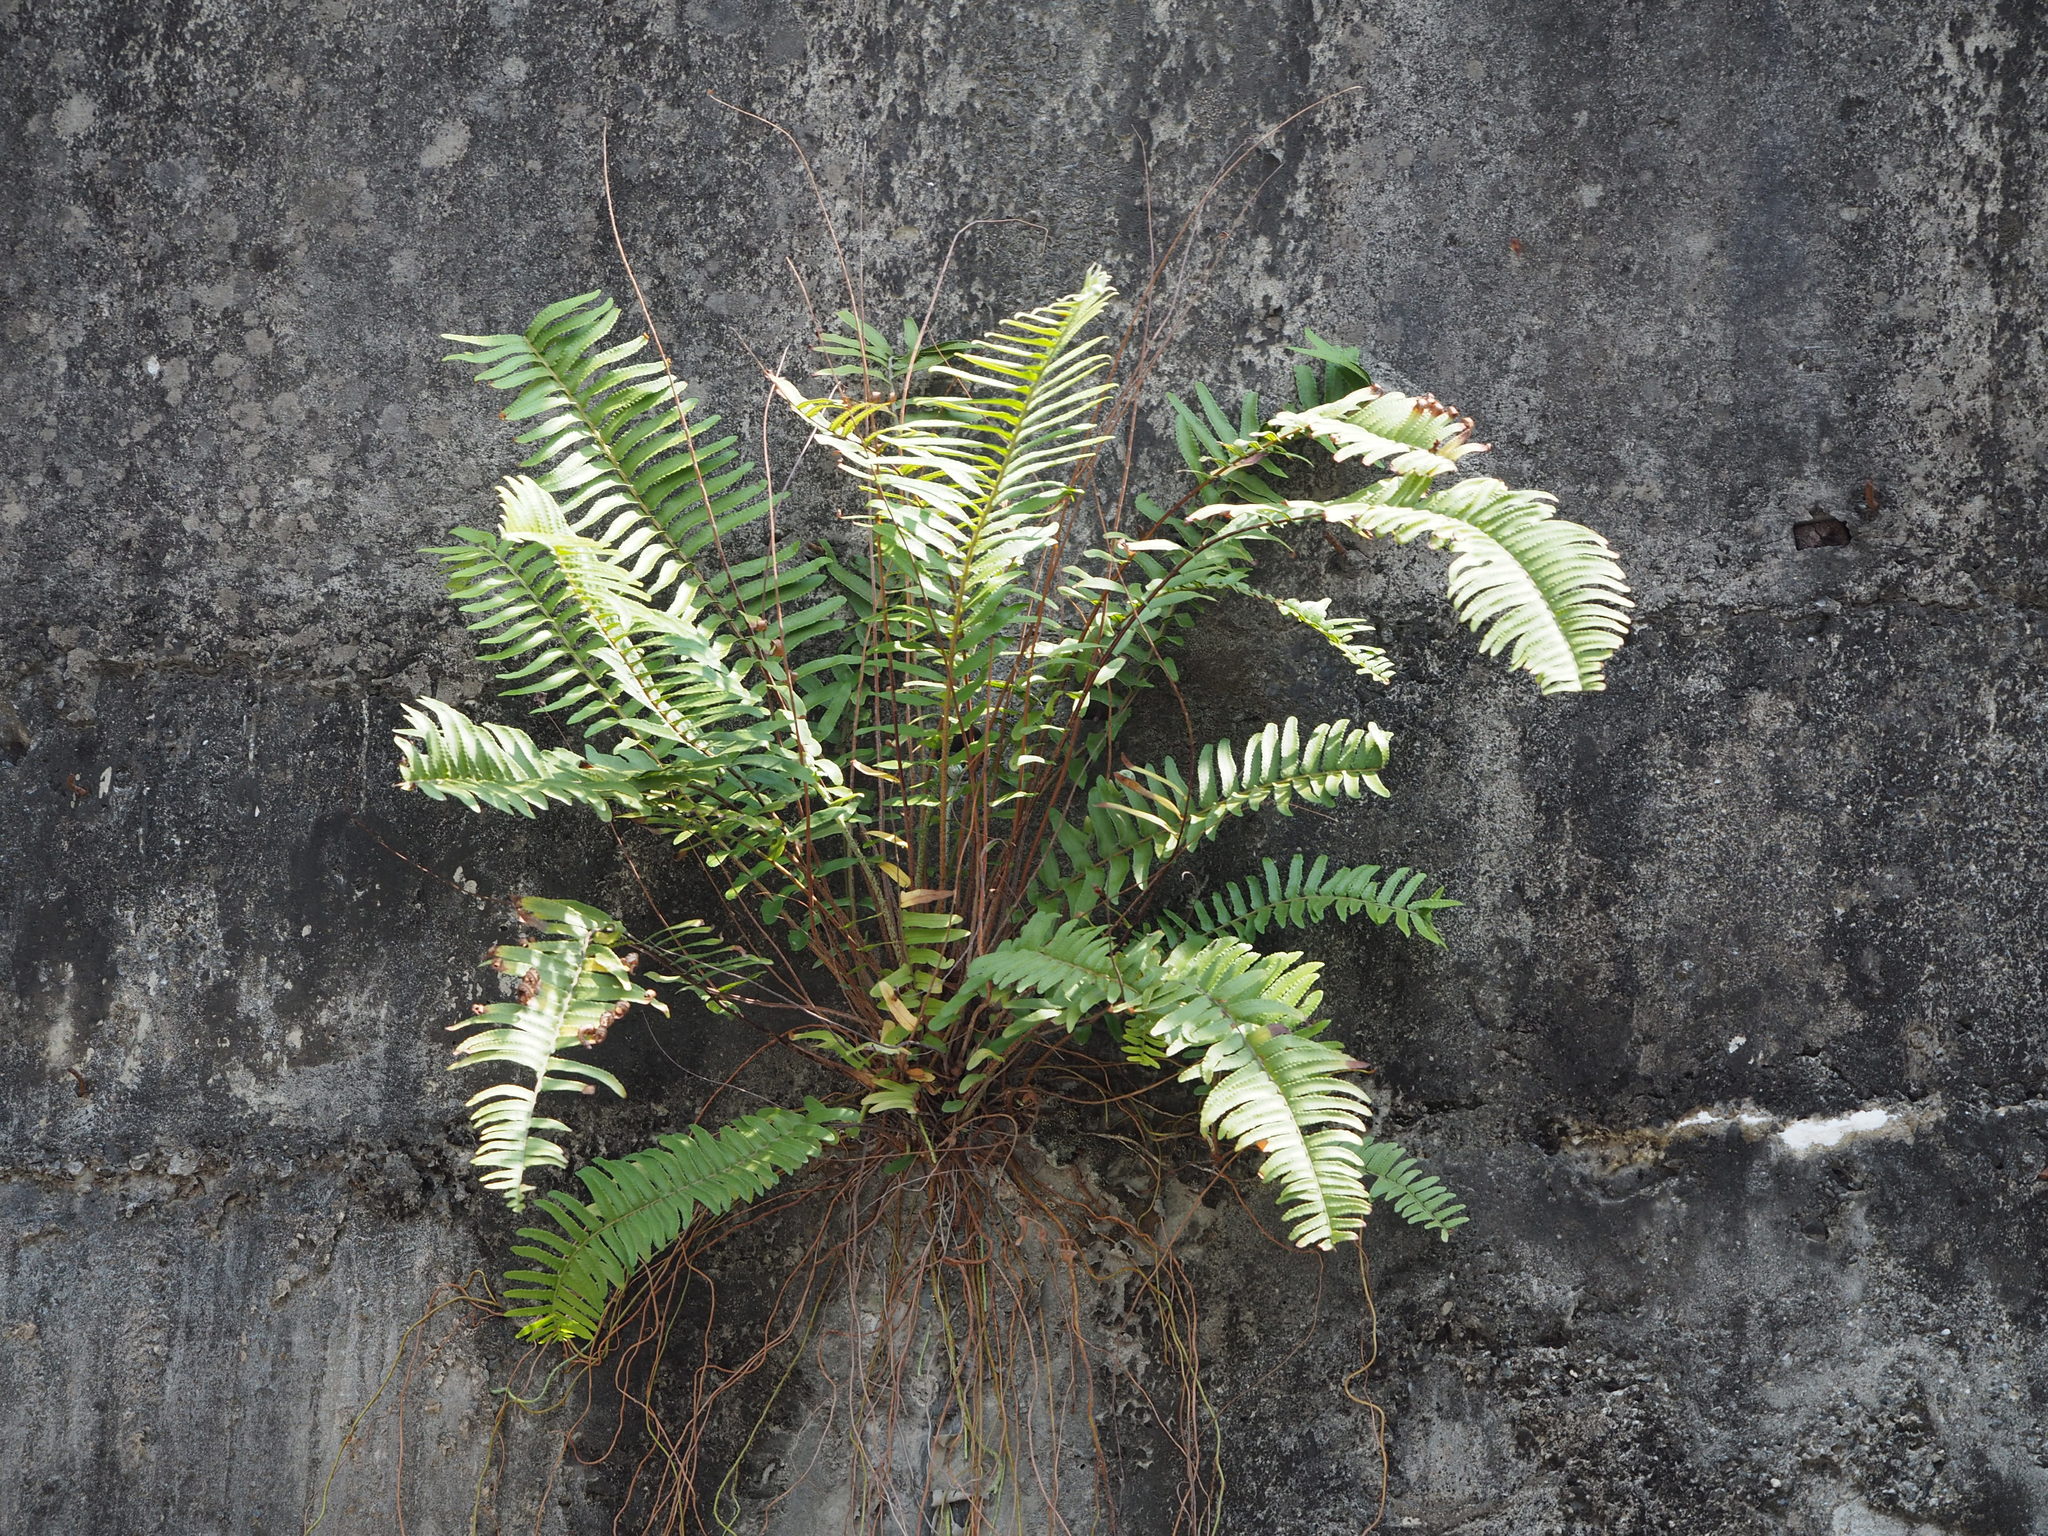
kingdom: Plantae
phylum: Tracheophyta
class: Polypodiopsida
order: Polypodiales
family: Nephrolepidaceae
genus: Nephrolepis
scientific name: Nephrolepis brownii
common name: Asian swordfern
